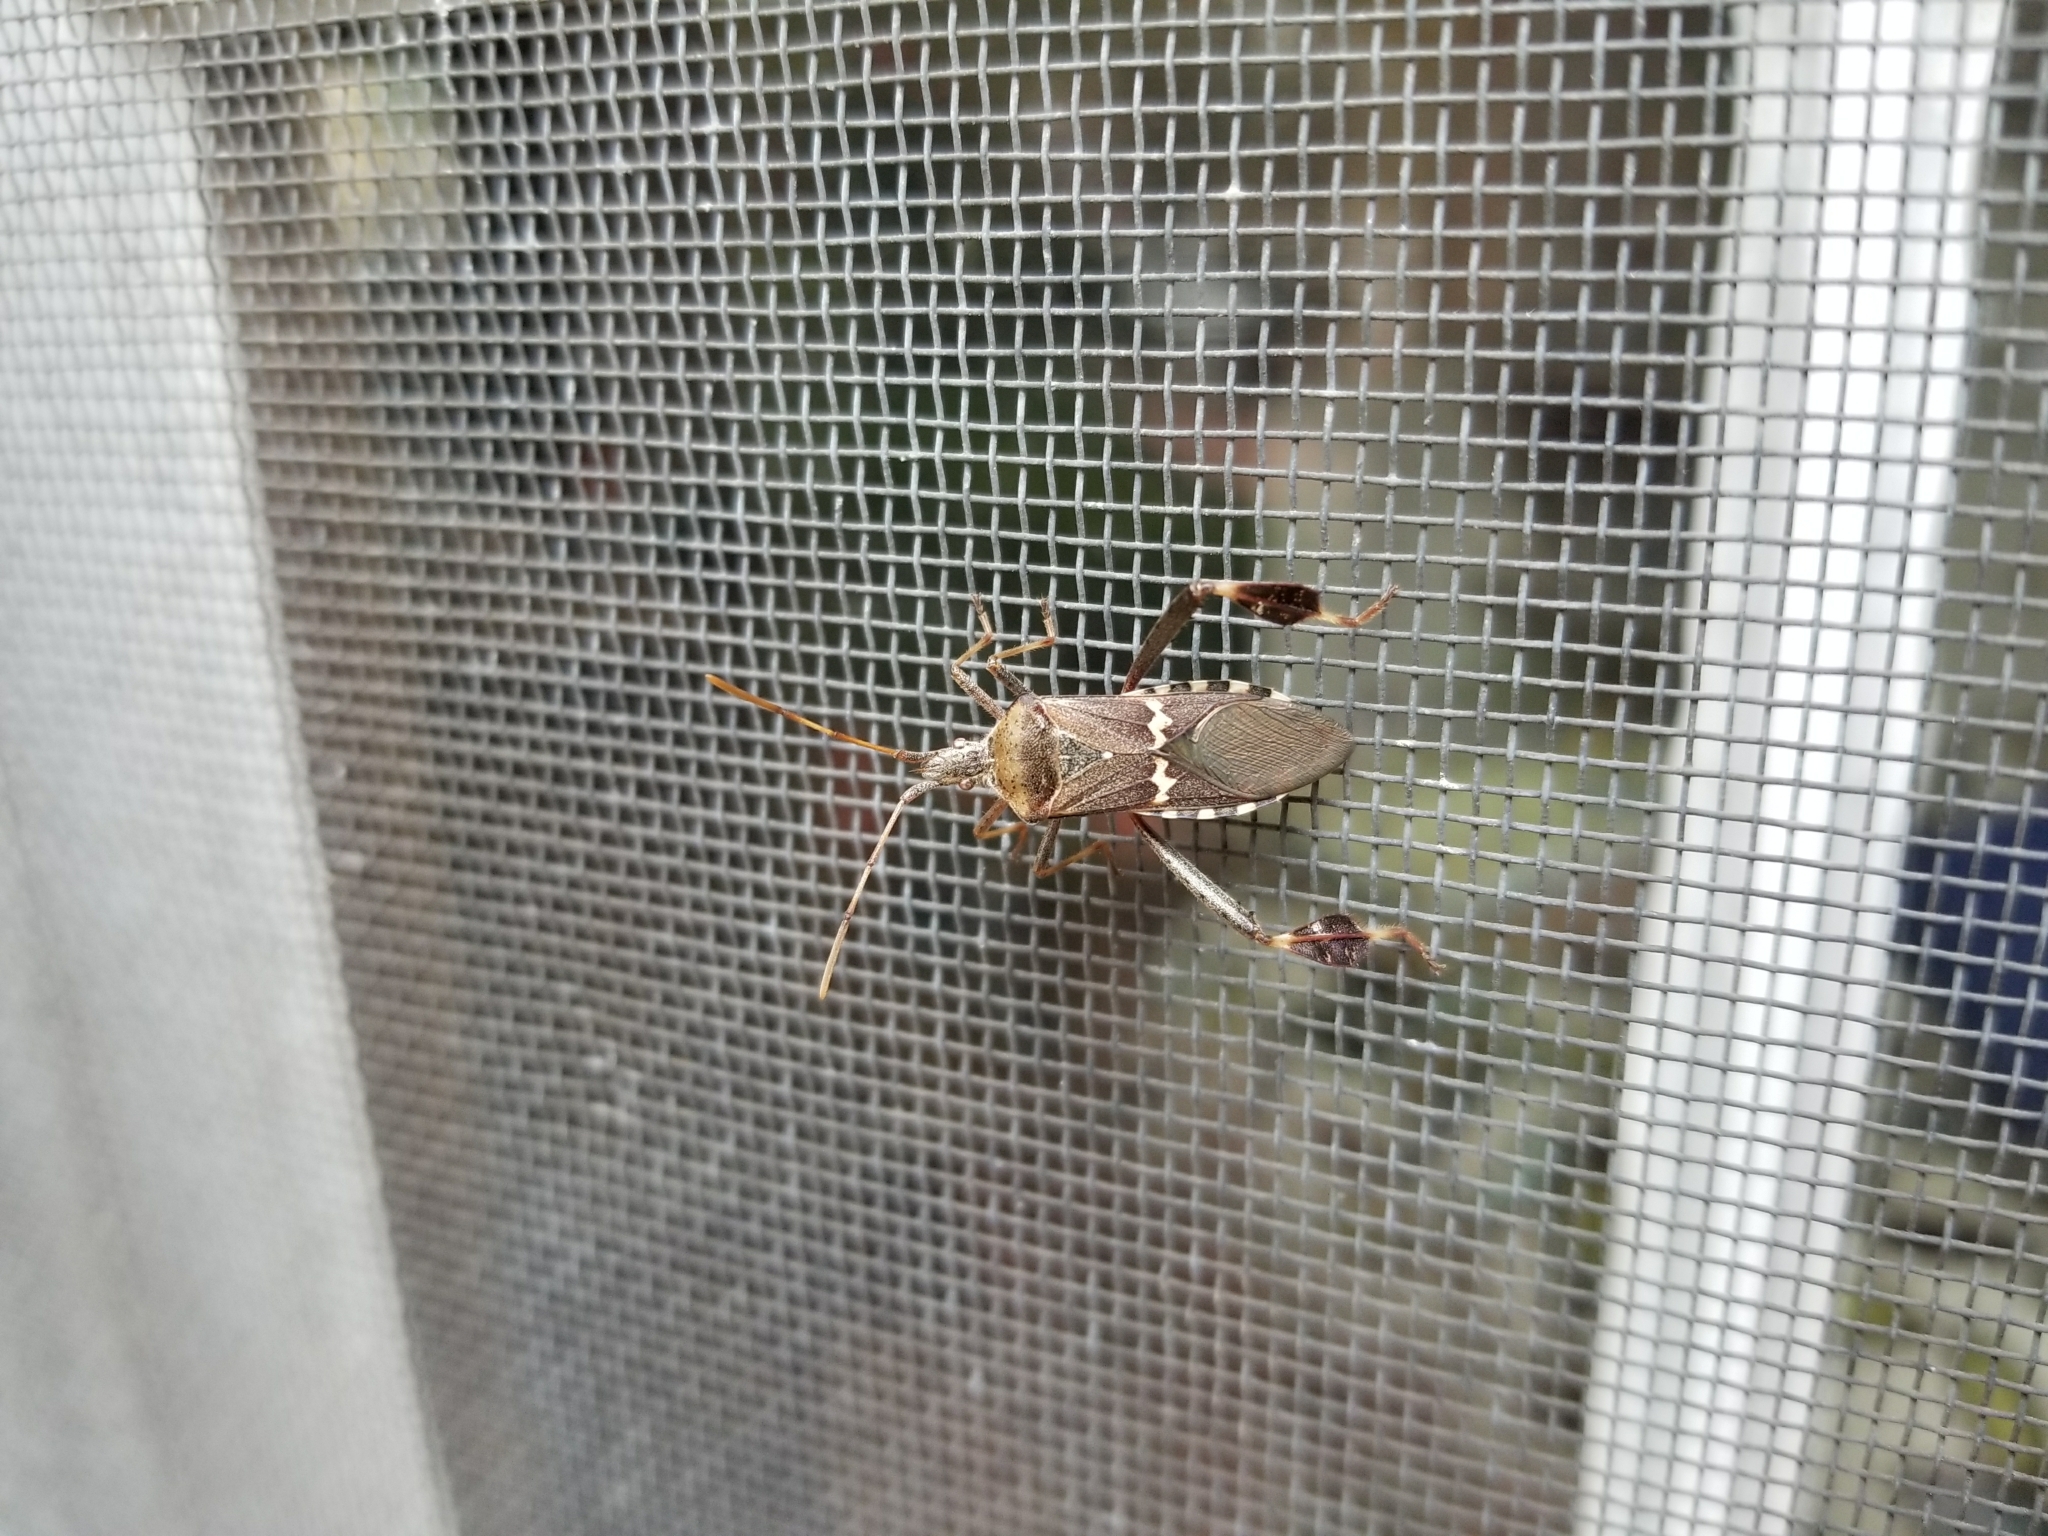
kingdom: Animalia
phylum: Arthropoda
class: Insecta
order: Hemiptera
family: Coreidae
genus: Leptoglossus
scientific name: Leptoglossus clypealis
